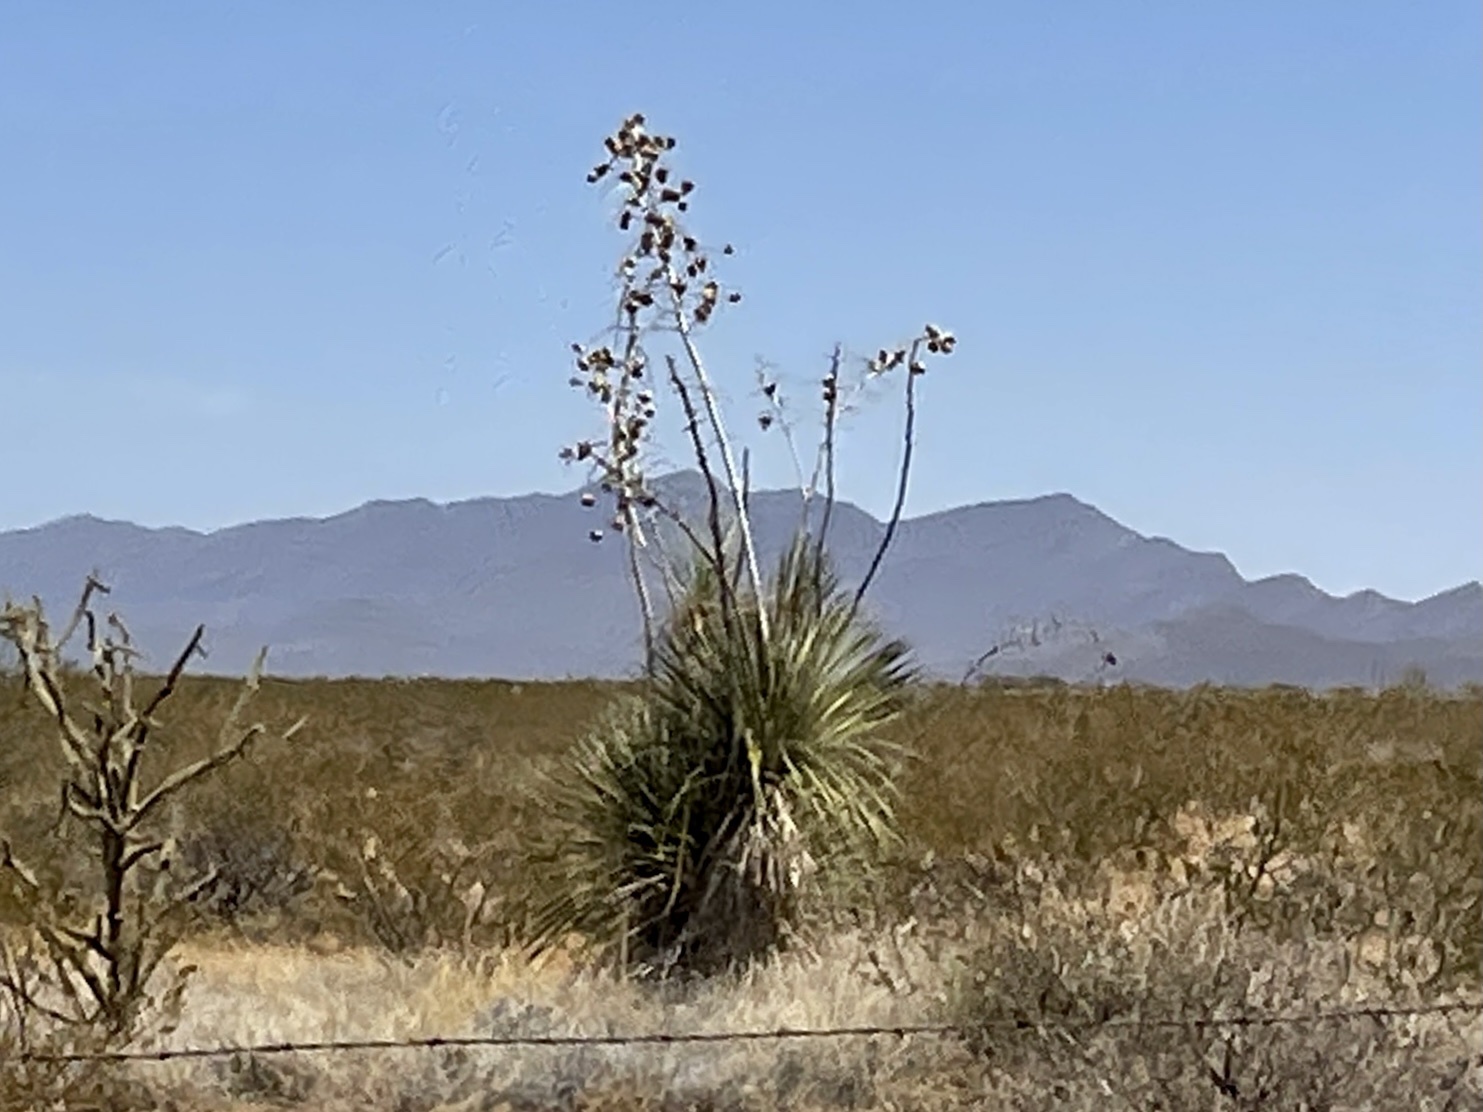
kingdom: Plantae
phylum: Tracheophyta
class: Liliopsida
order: Asparagales
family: Asparagaceae
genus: Yucca
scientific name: Yucca elata
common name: Palmella
